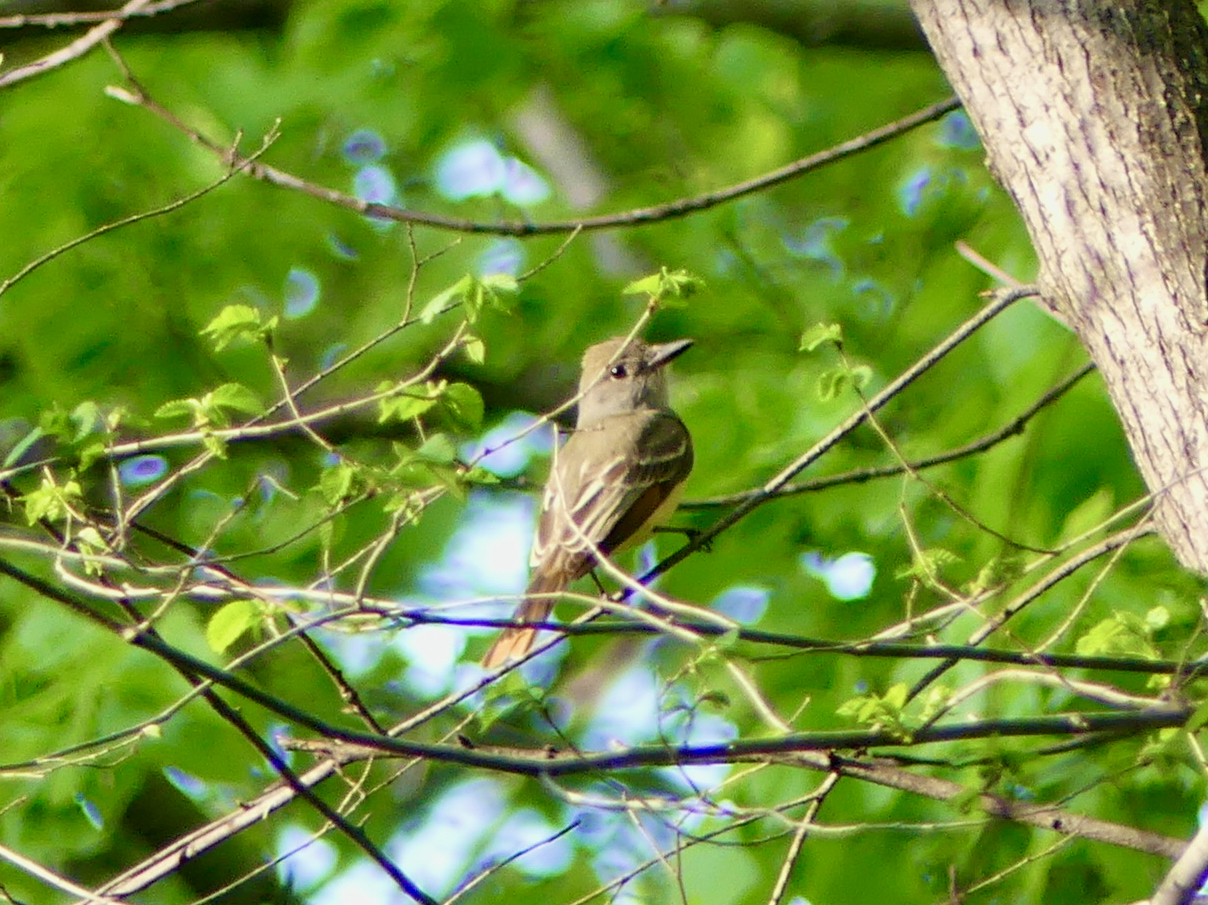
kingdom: Animalia
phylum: Chordata
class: Aves
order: Passeriformes
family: Tyrannidae
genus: Myiarchus
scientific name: Myiarchus crinitus
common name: Great crested flycatcher
